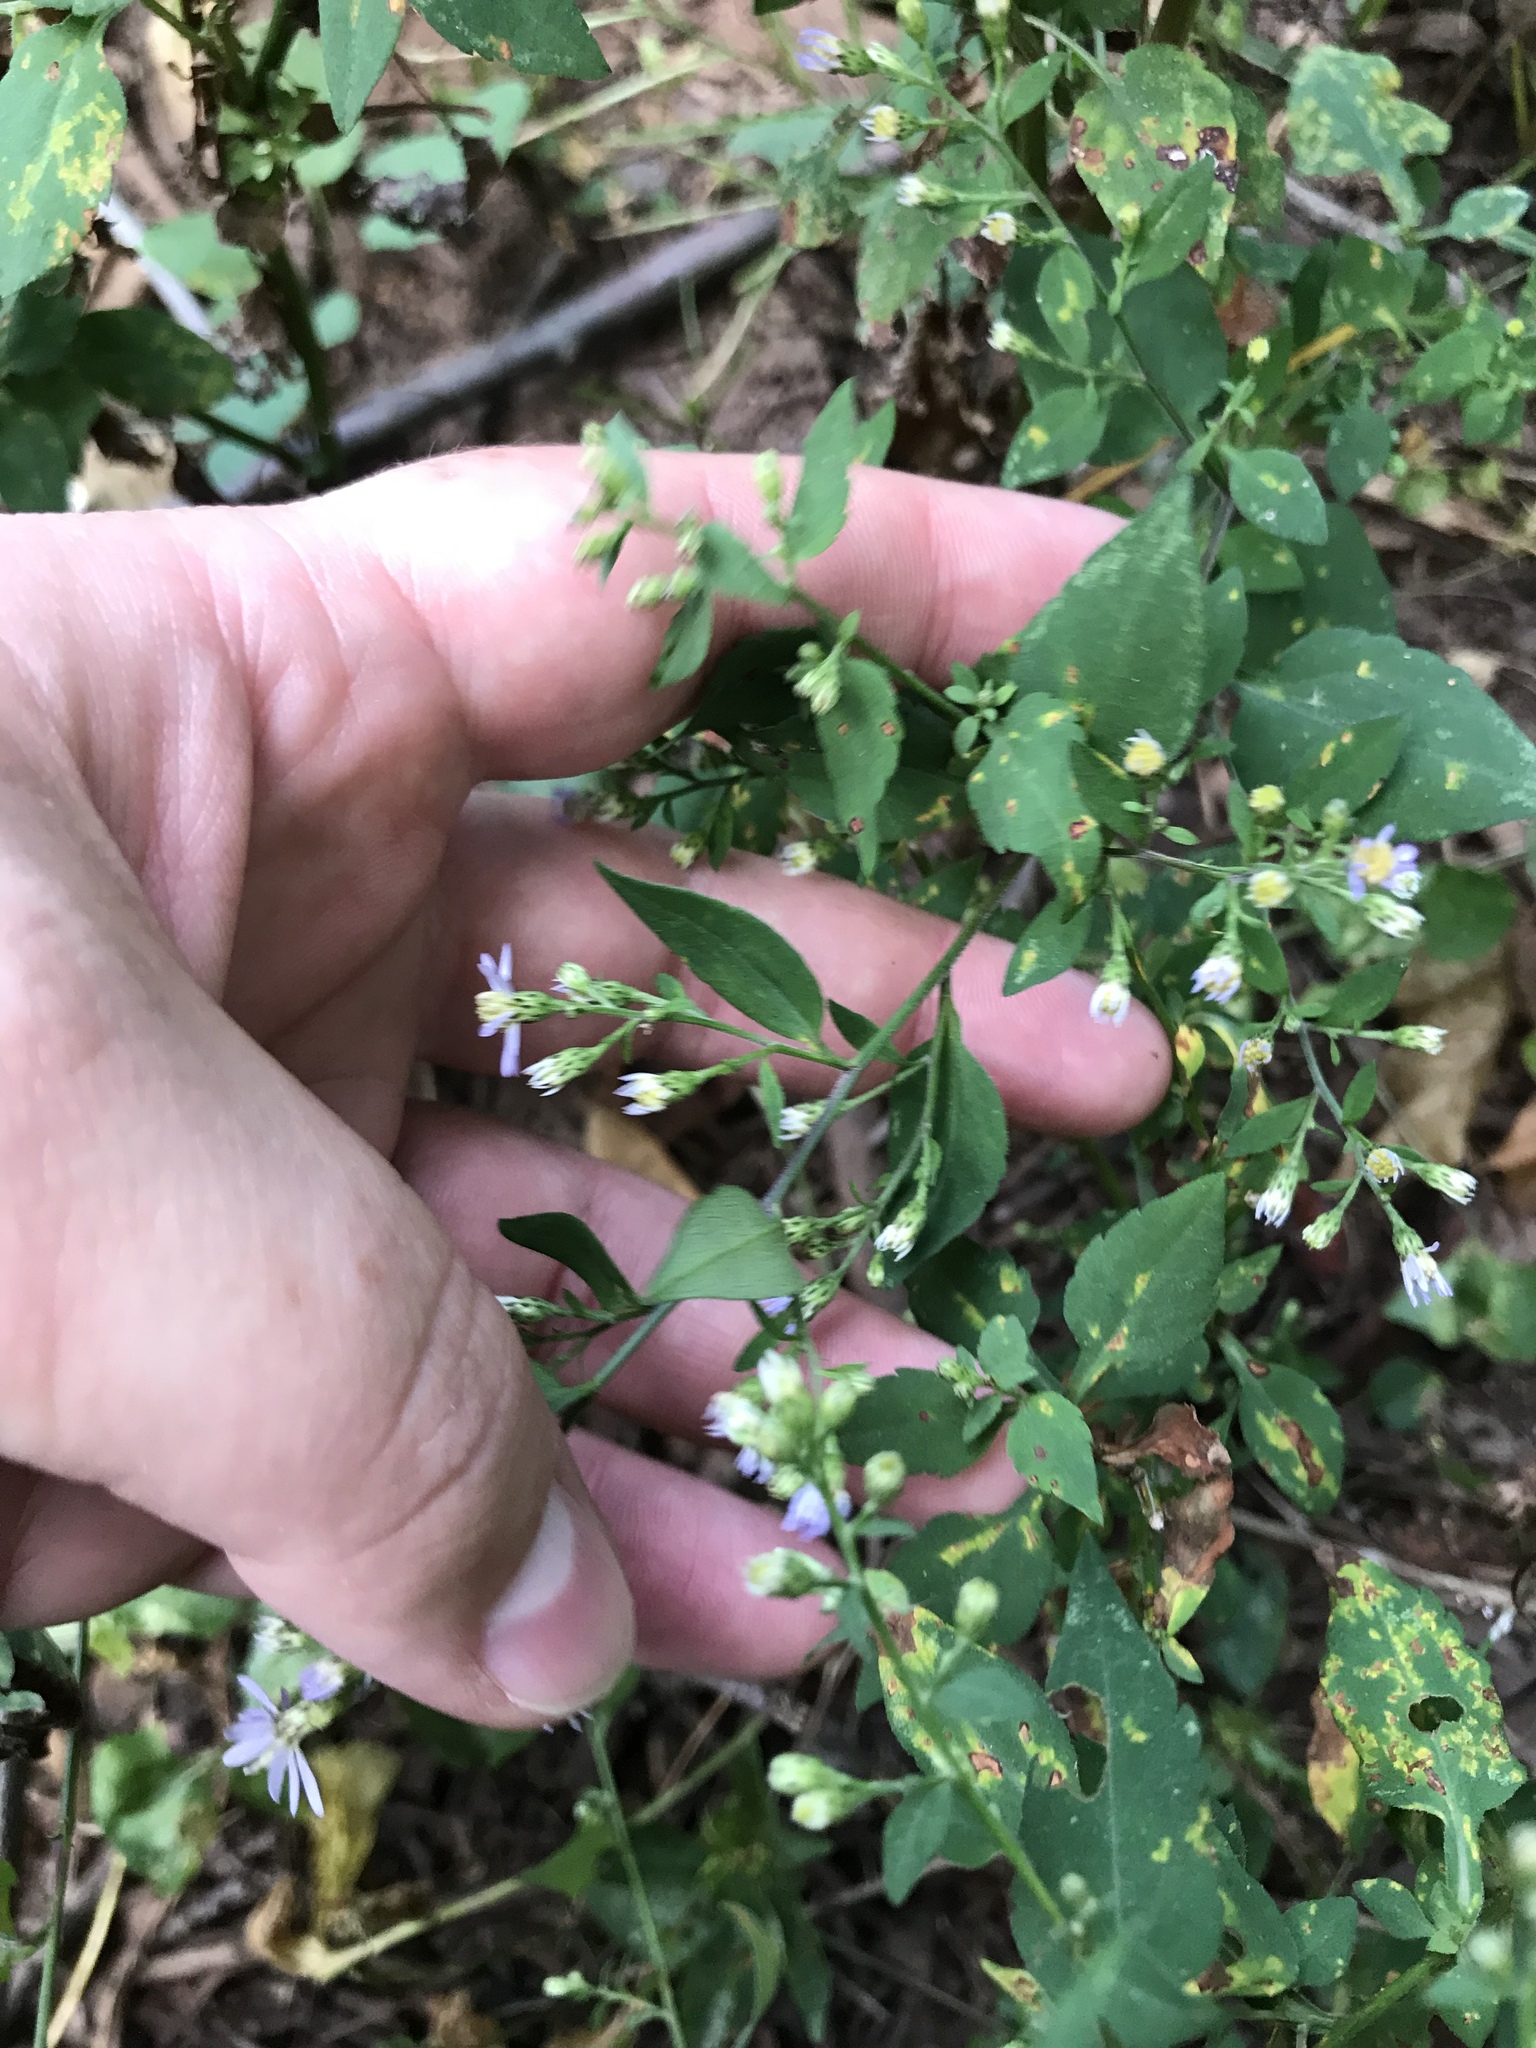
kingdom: Plantae
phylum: Tracheophyta
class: Magnoliopsida
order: Asterales
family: Asteraceae
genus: Symphyotrichum
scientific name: Symphyotrichum cordifolium
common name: Beeweed
